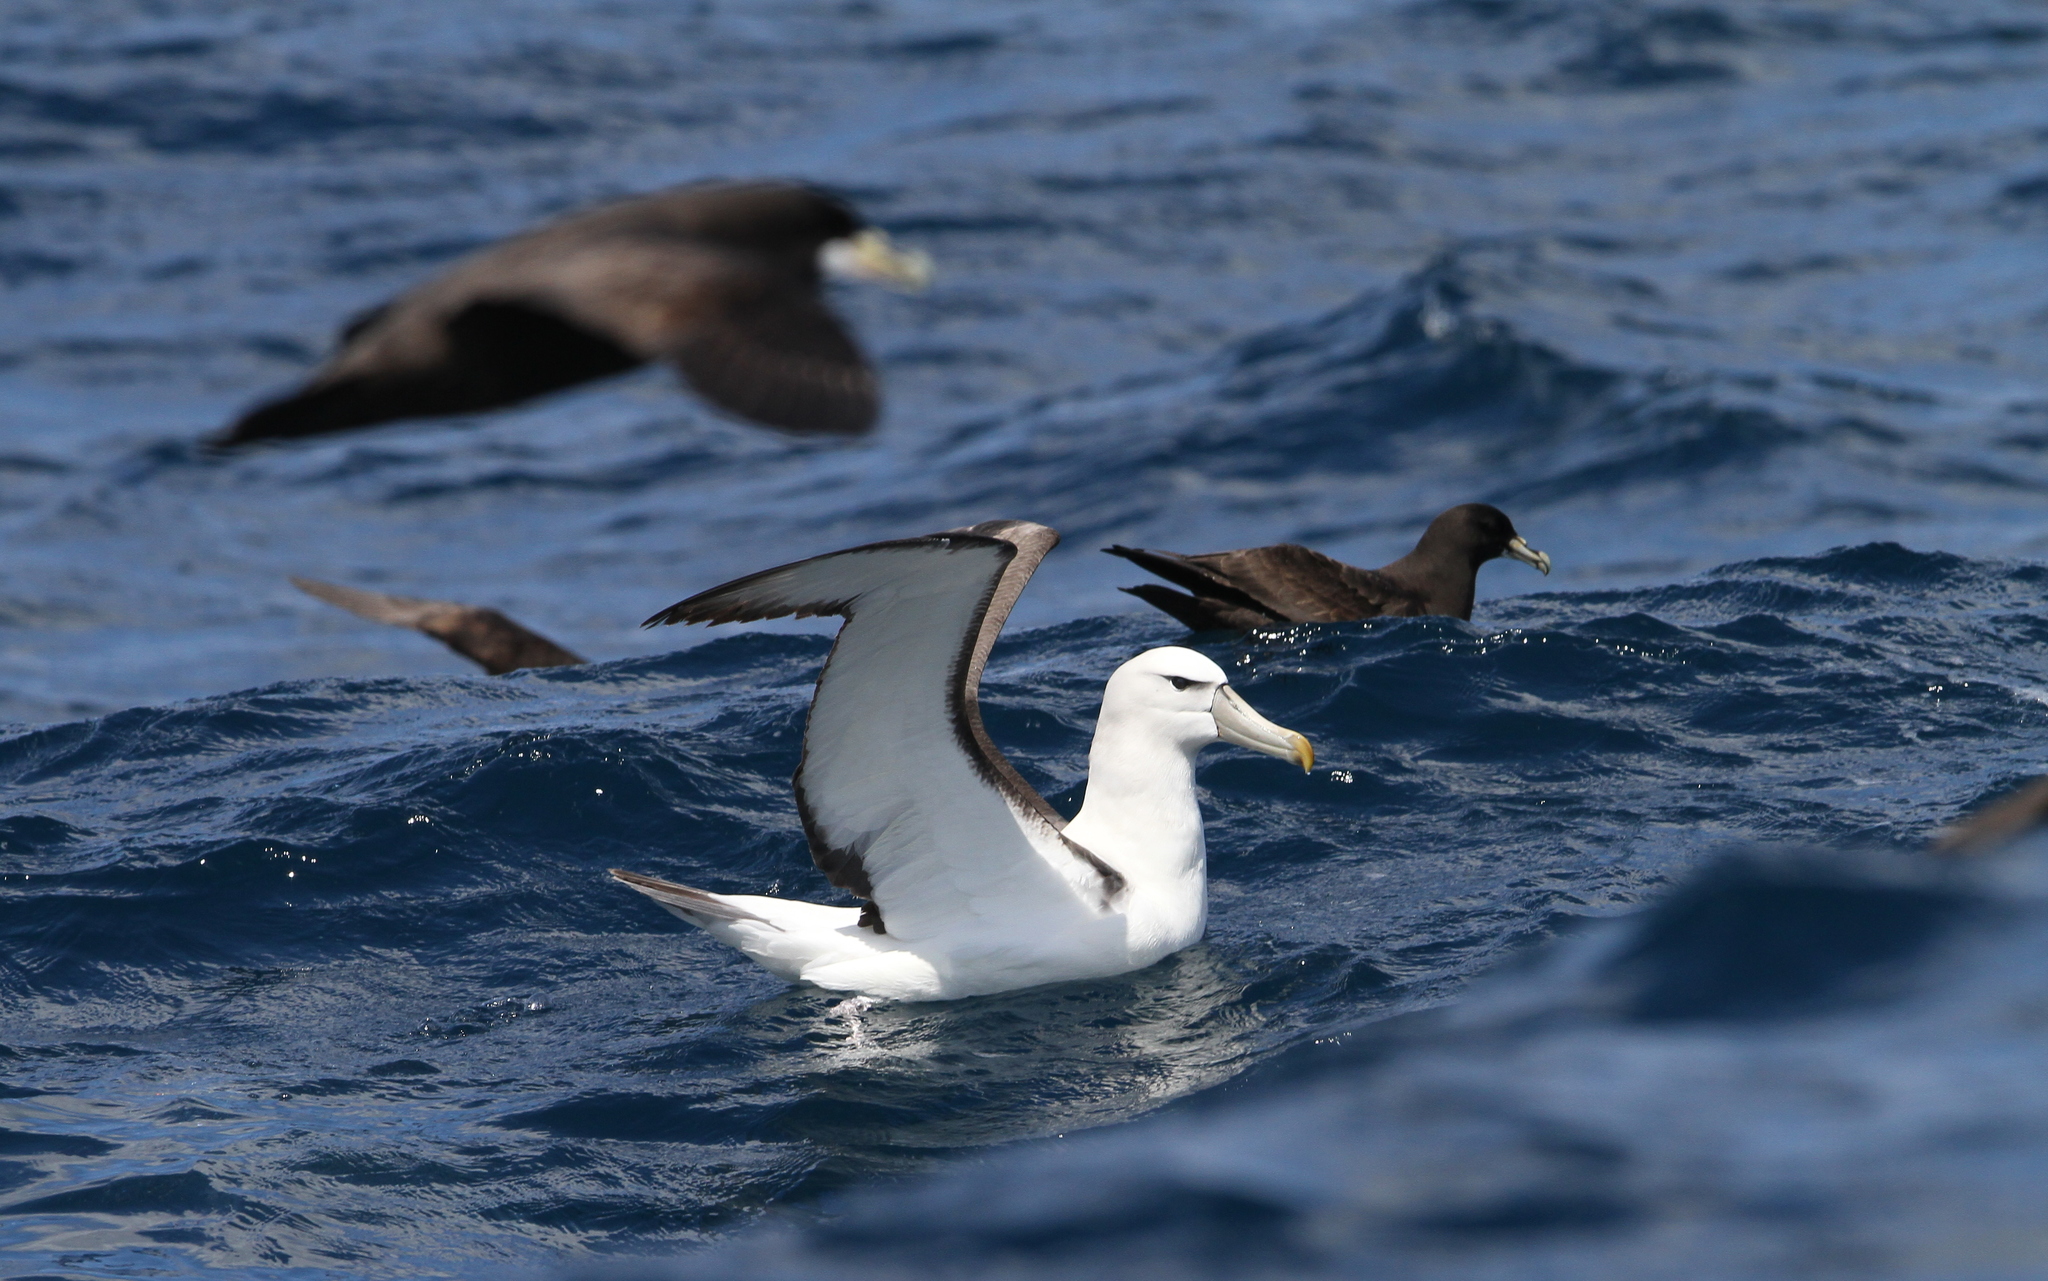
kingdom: Animalia
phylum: Chordata
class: Aves
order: Procellariiformes
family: Diomedeidae
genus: Thalassarche
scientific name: Thalassarche cauta
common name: Shy albatross
